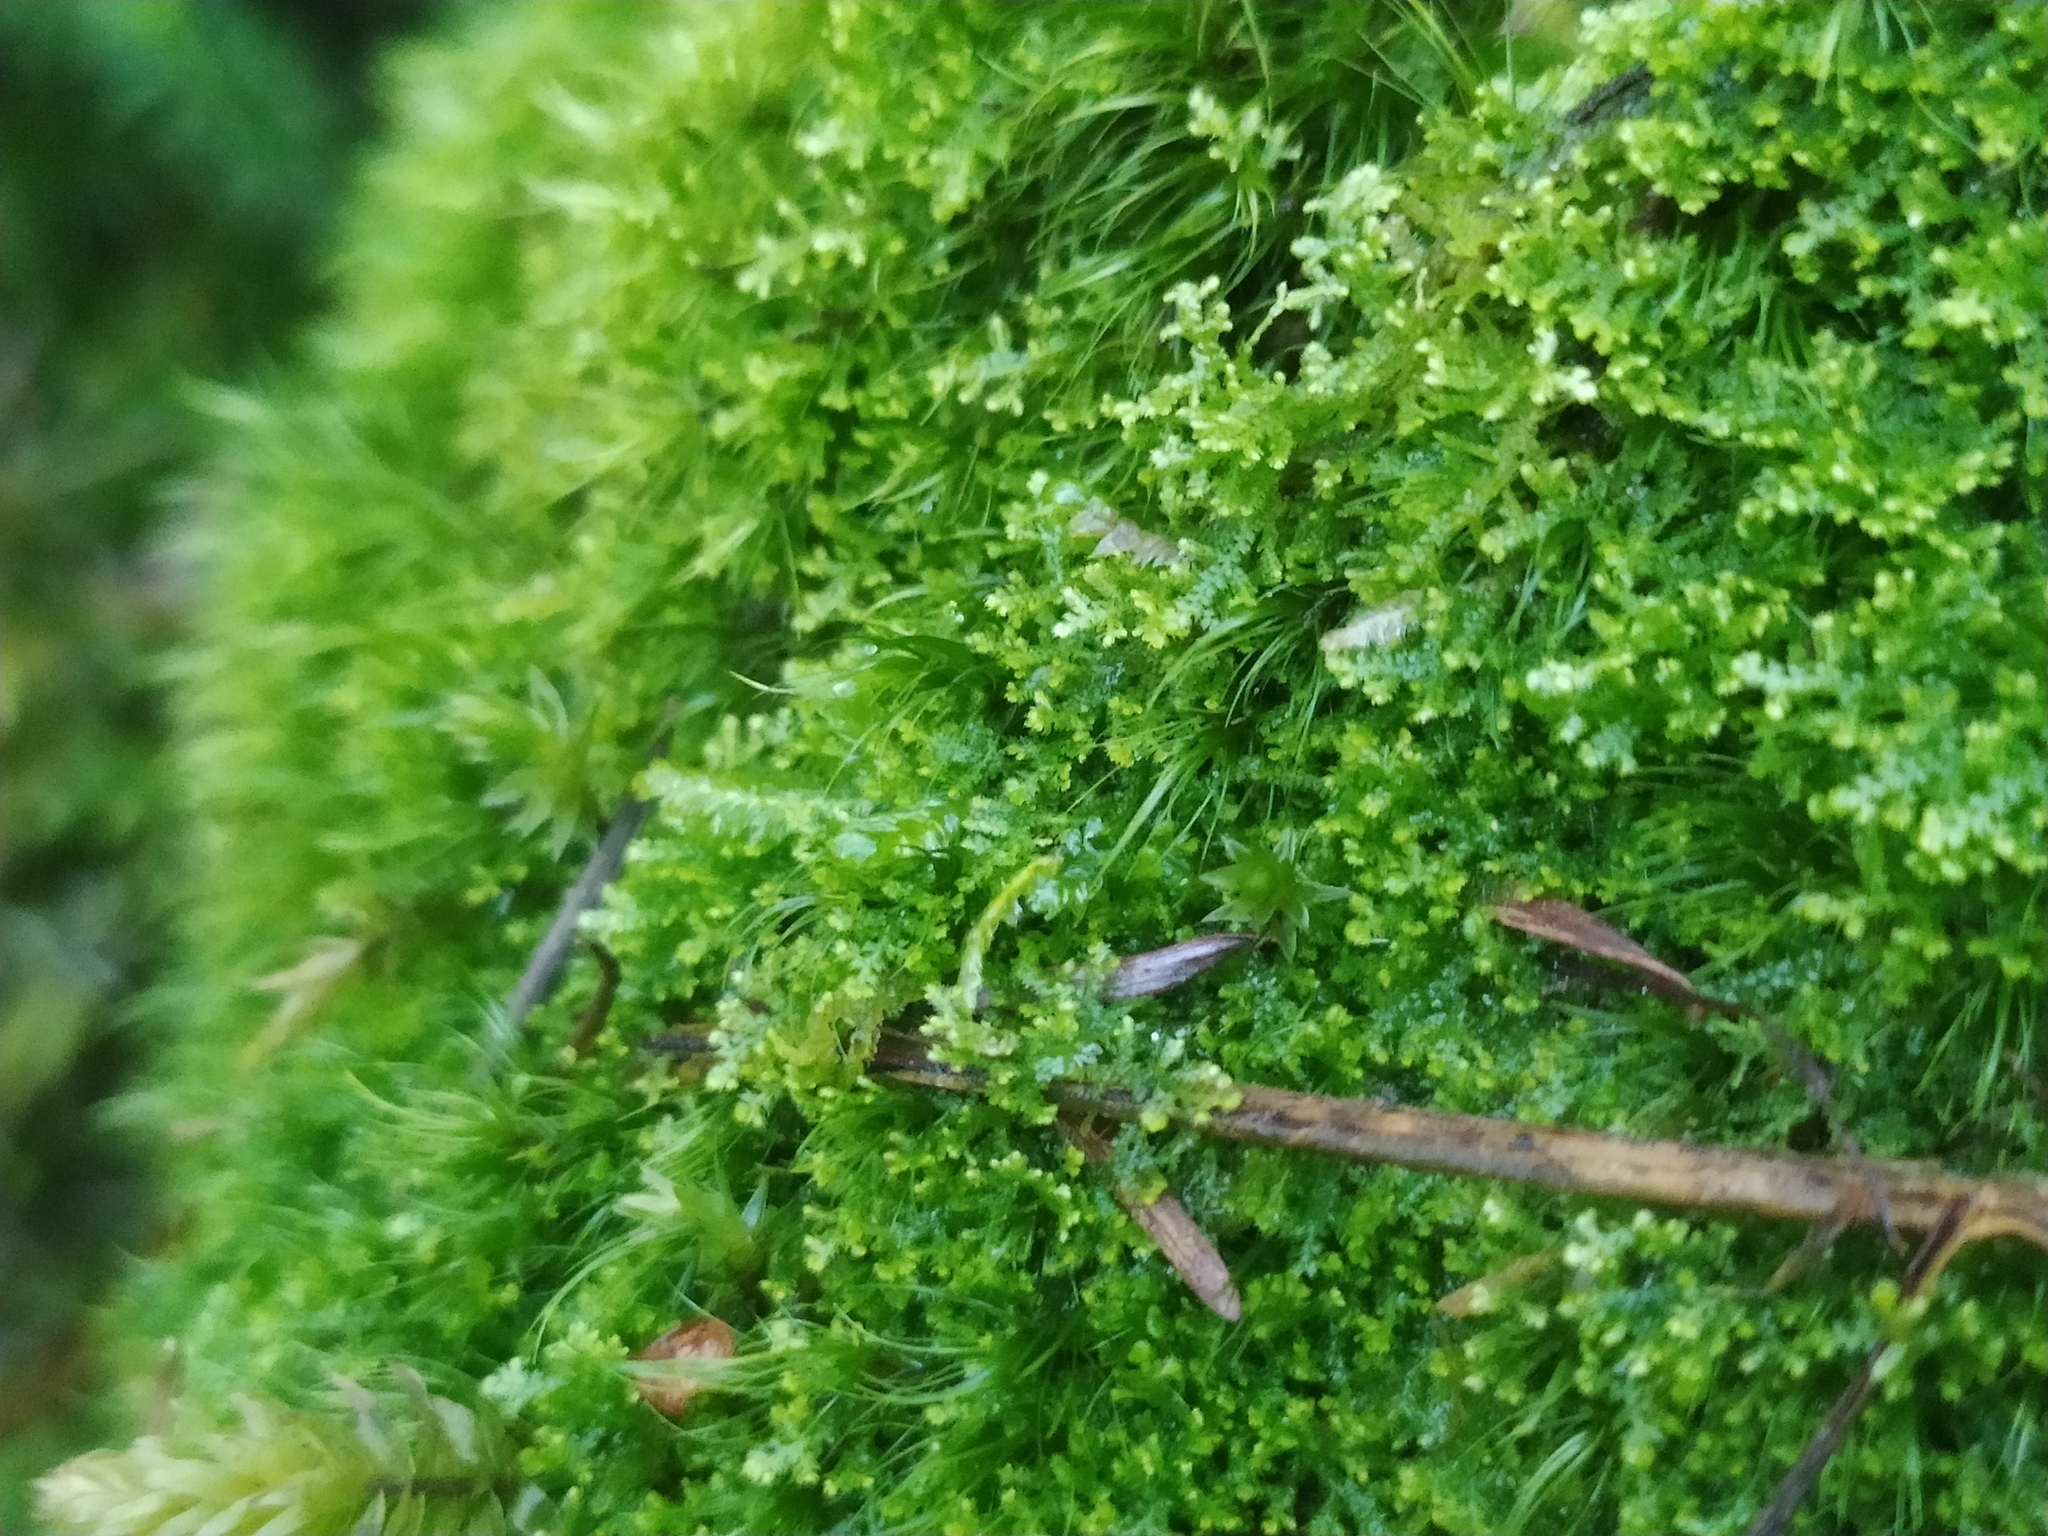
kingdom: Plantae
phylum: Marchantiophyta
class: Jungermanniopsida
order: Jungermanniales
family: Lepidoziaceae
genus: Lepidozia
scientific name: Lepidozia reptans
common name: Creeping fingerwort
